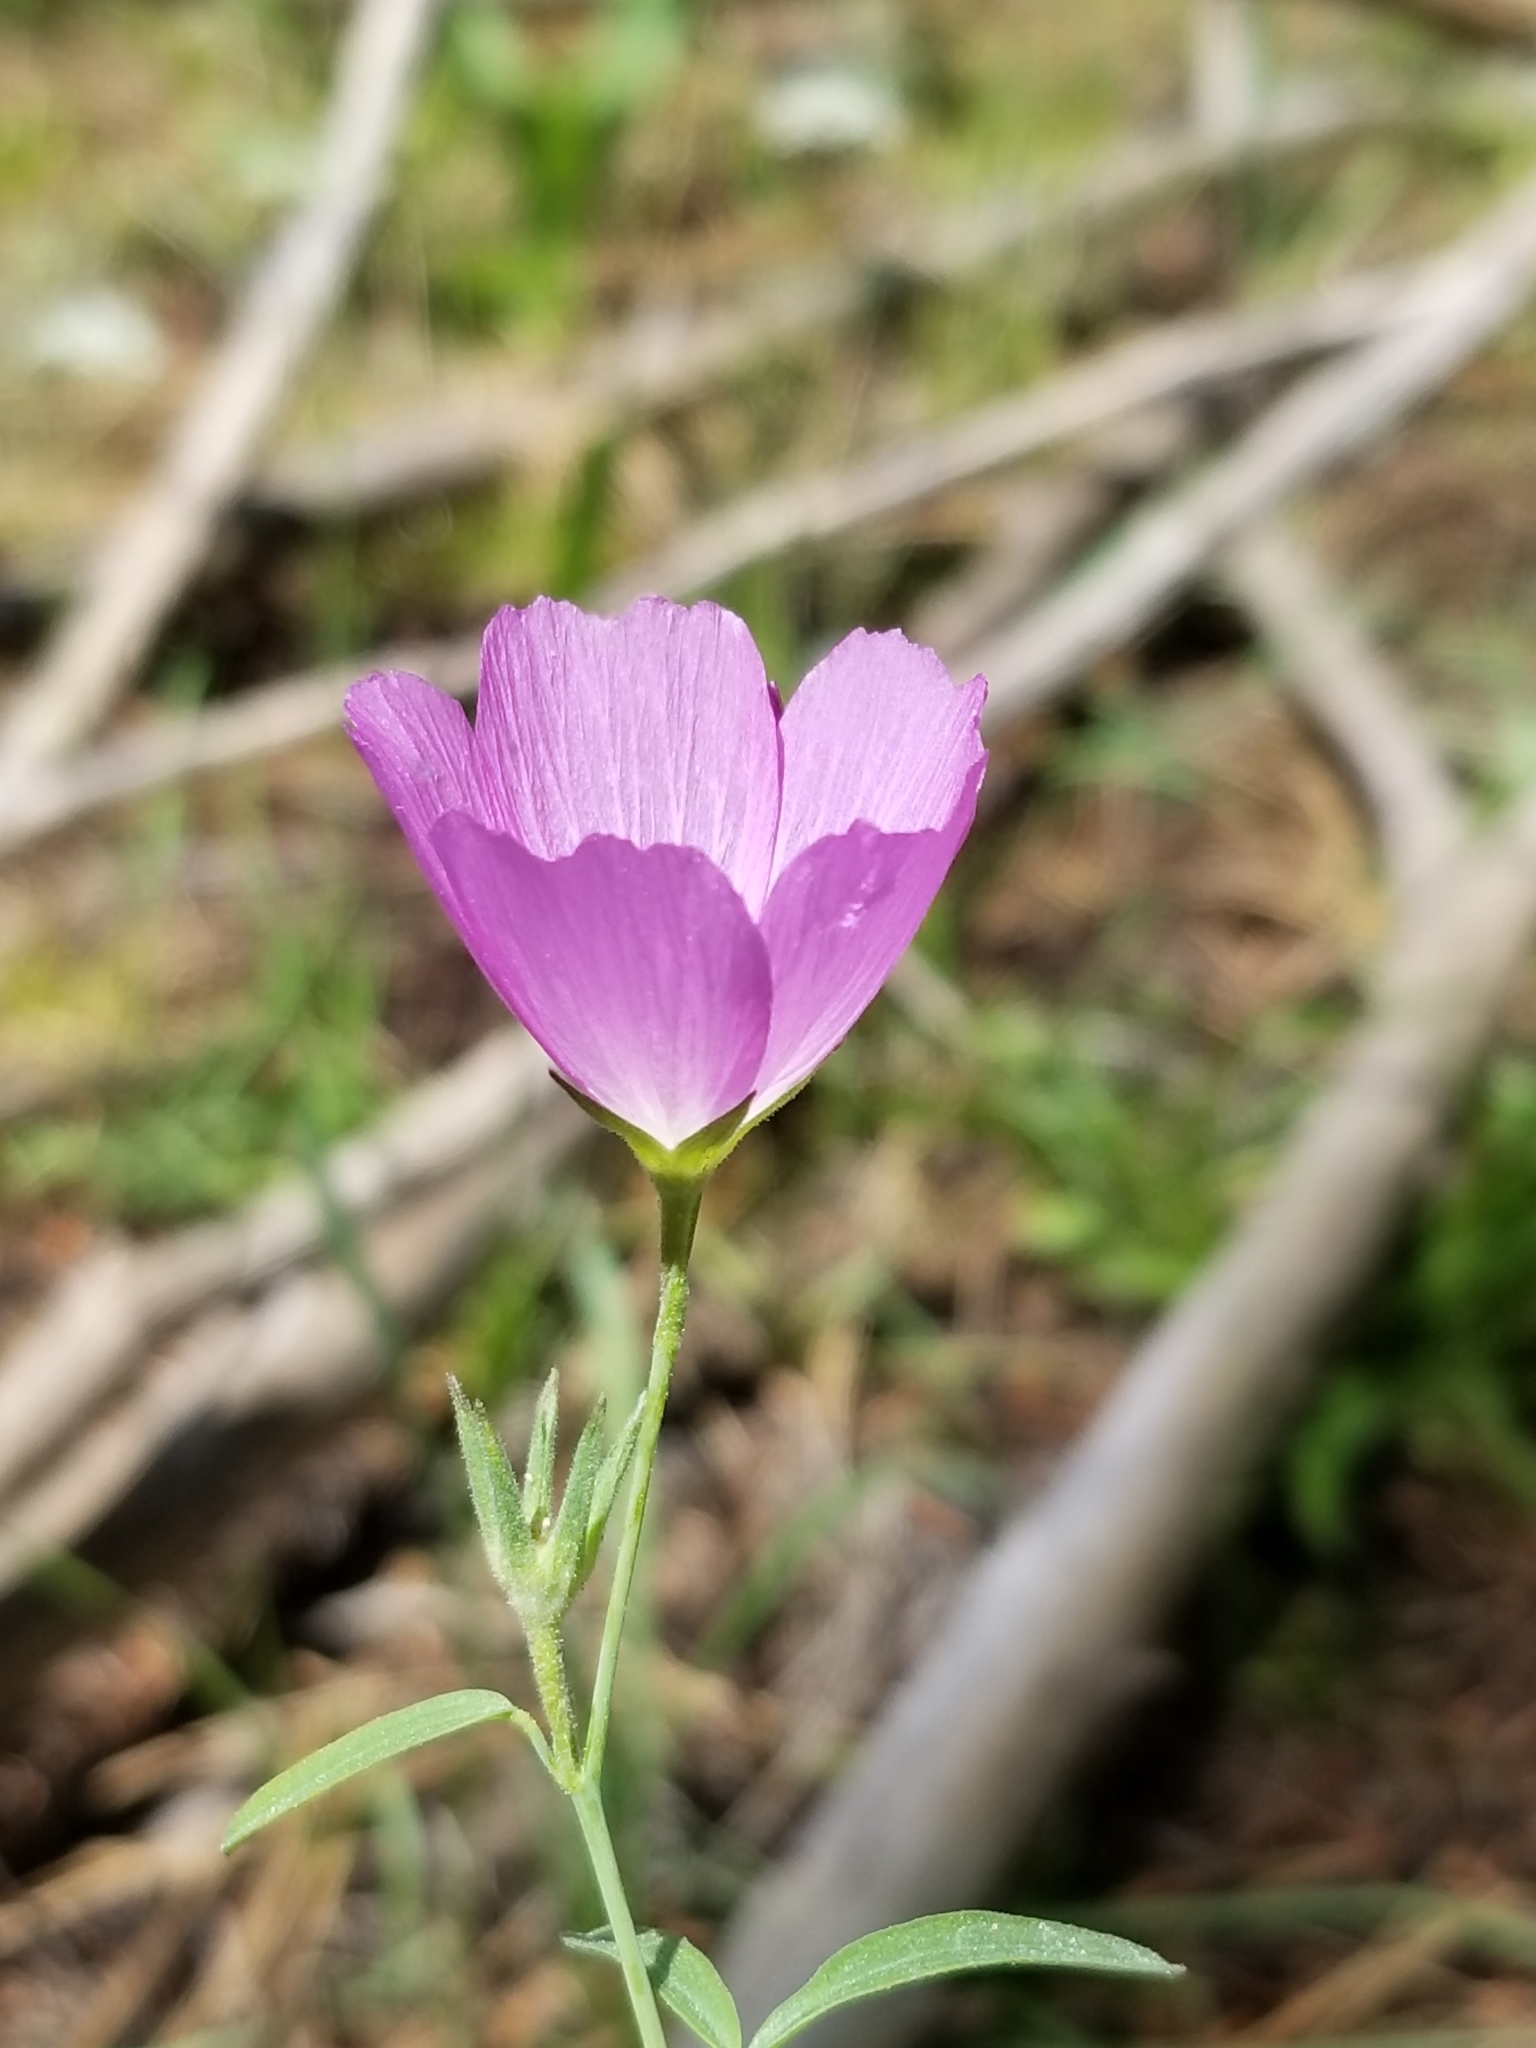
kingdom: Plantae
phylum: Tracheophyta
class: Magnoliopsida
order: Malvales
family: Malvaceae
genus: Sidalcea
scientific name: Sidalcea glaucescens
